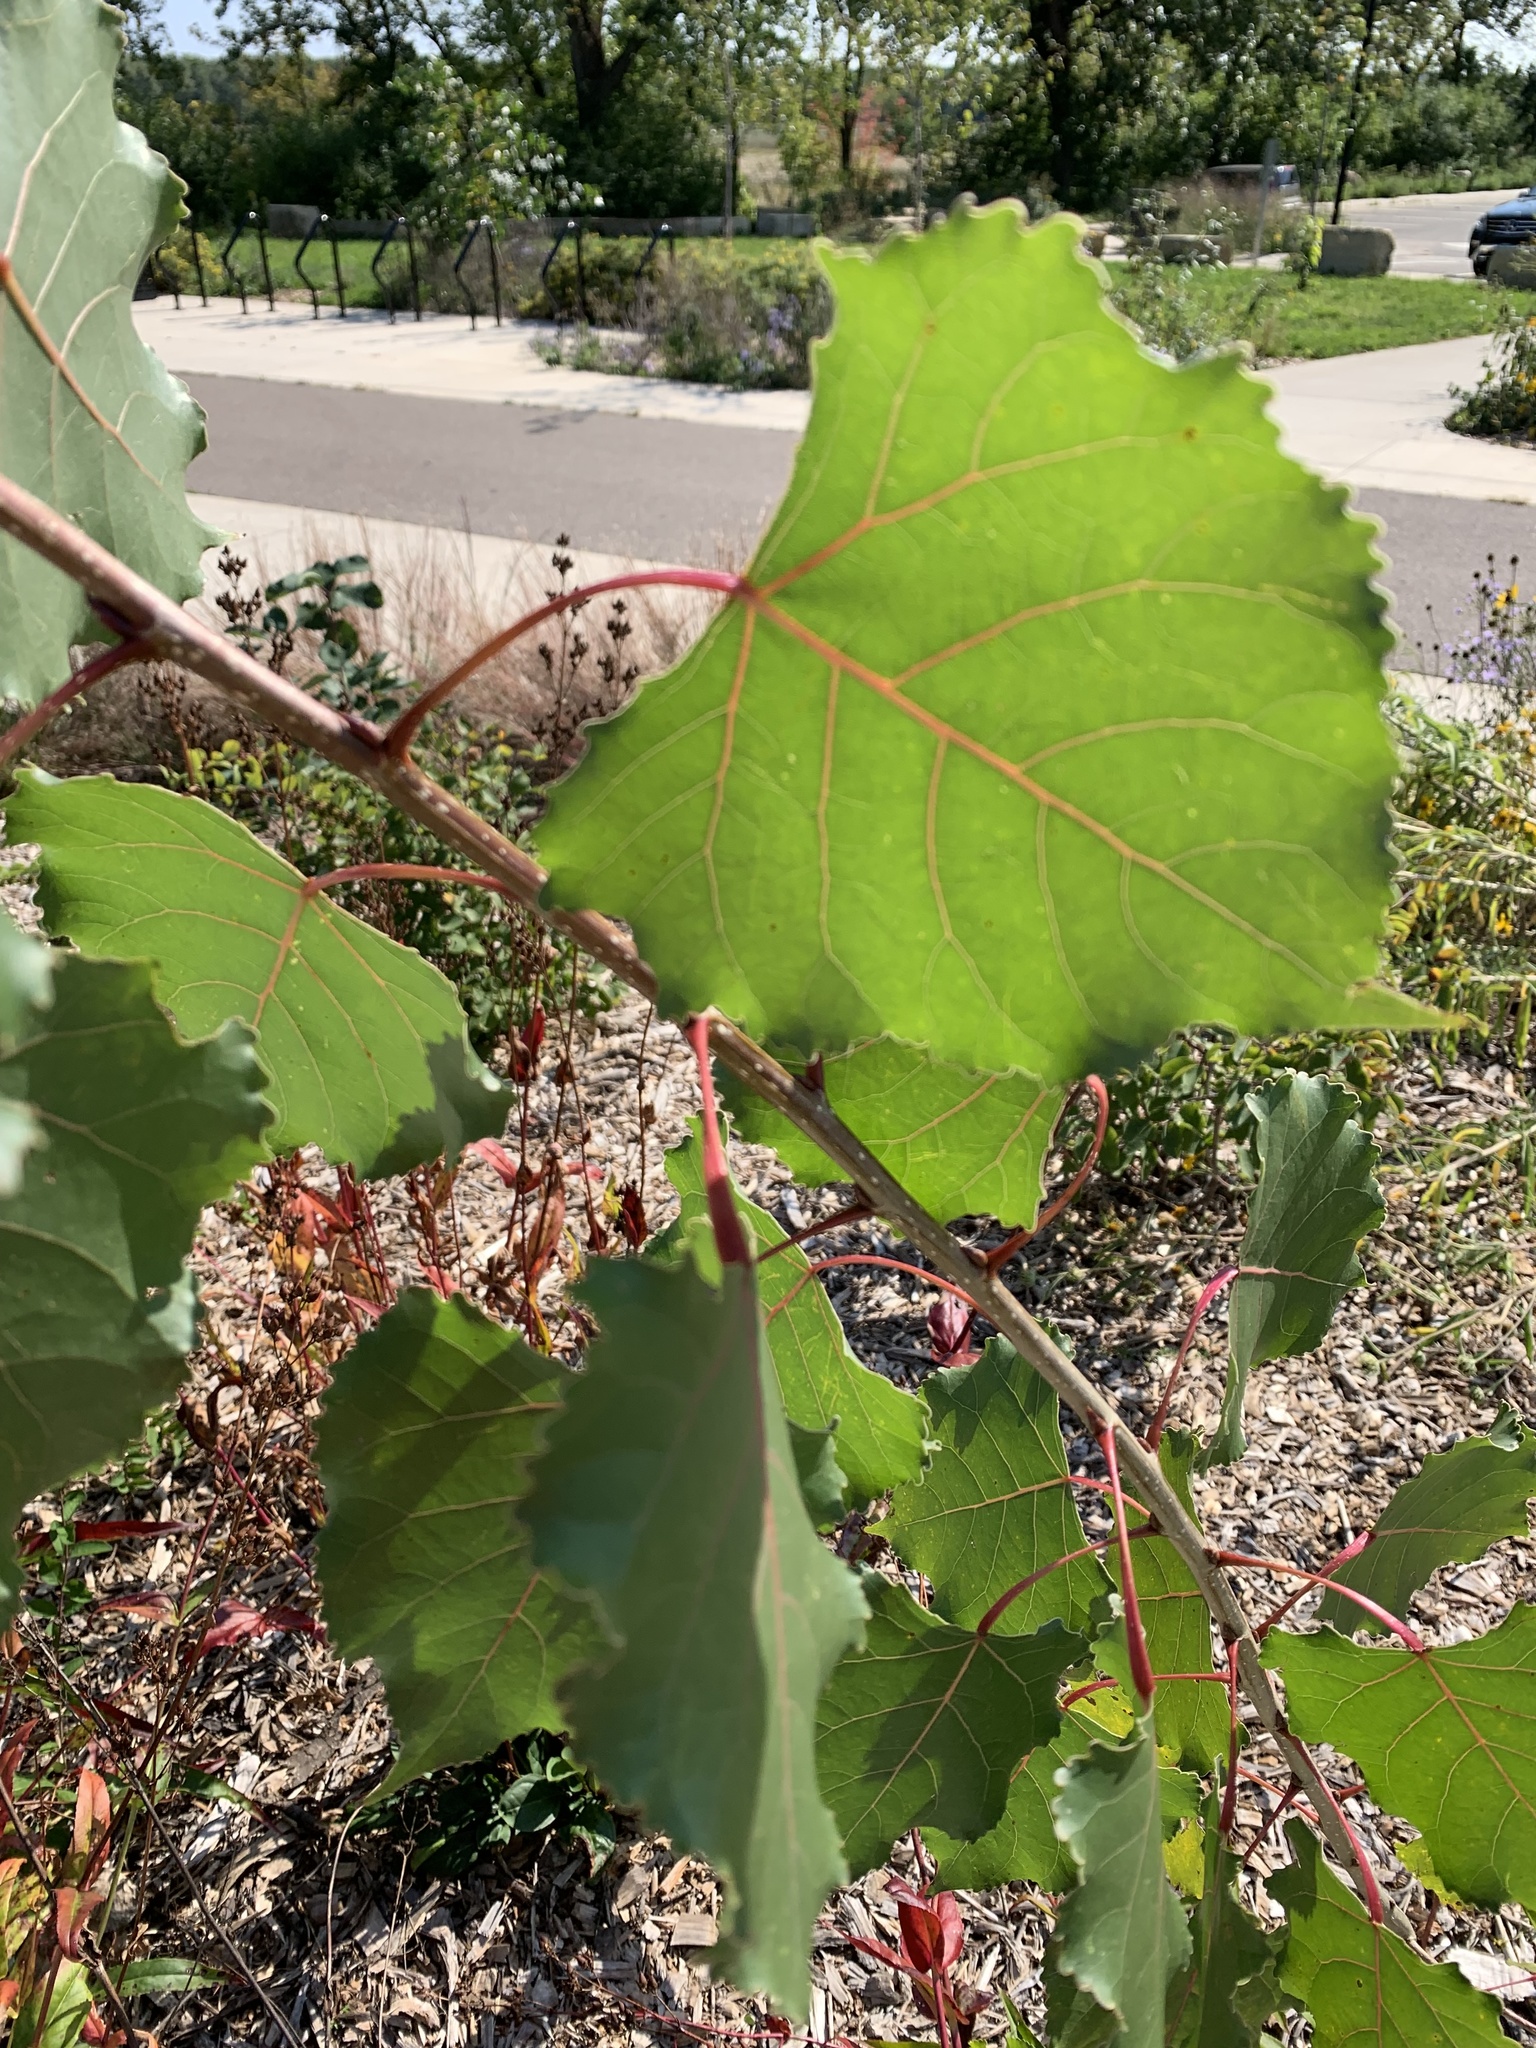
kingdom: Plantae
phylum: Tracheophyta
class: Magnoliopsida
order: Malpighiales
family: Salicaceae
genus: Populus
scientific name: Populus deltoides
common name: Eastern cottonwood
